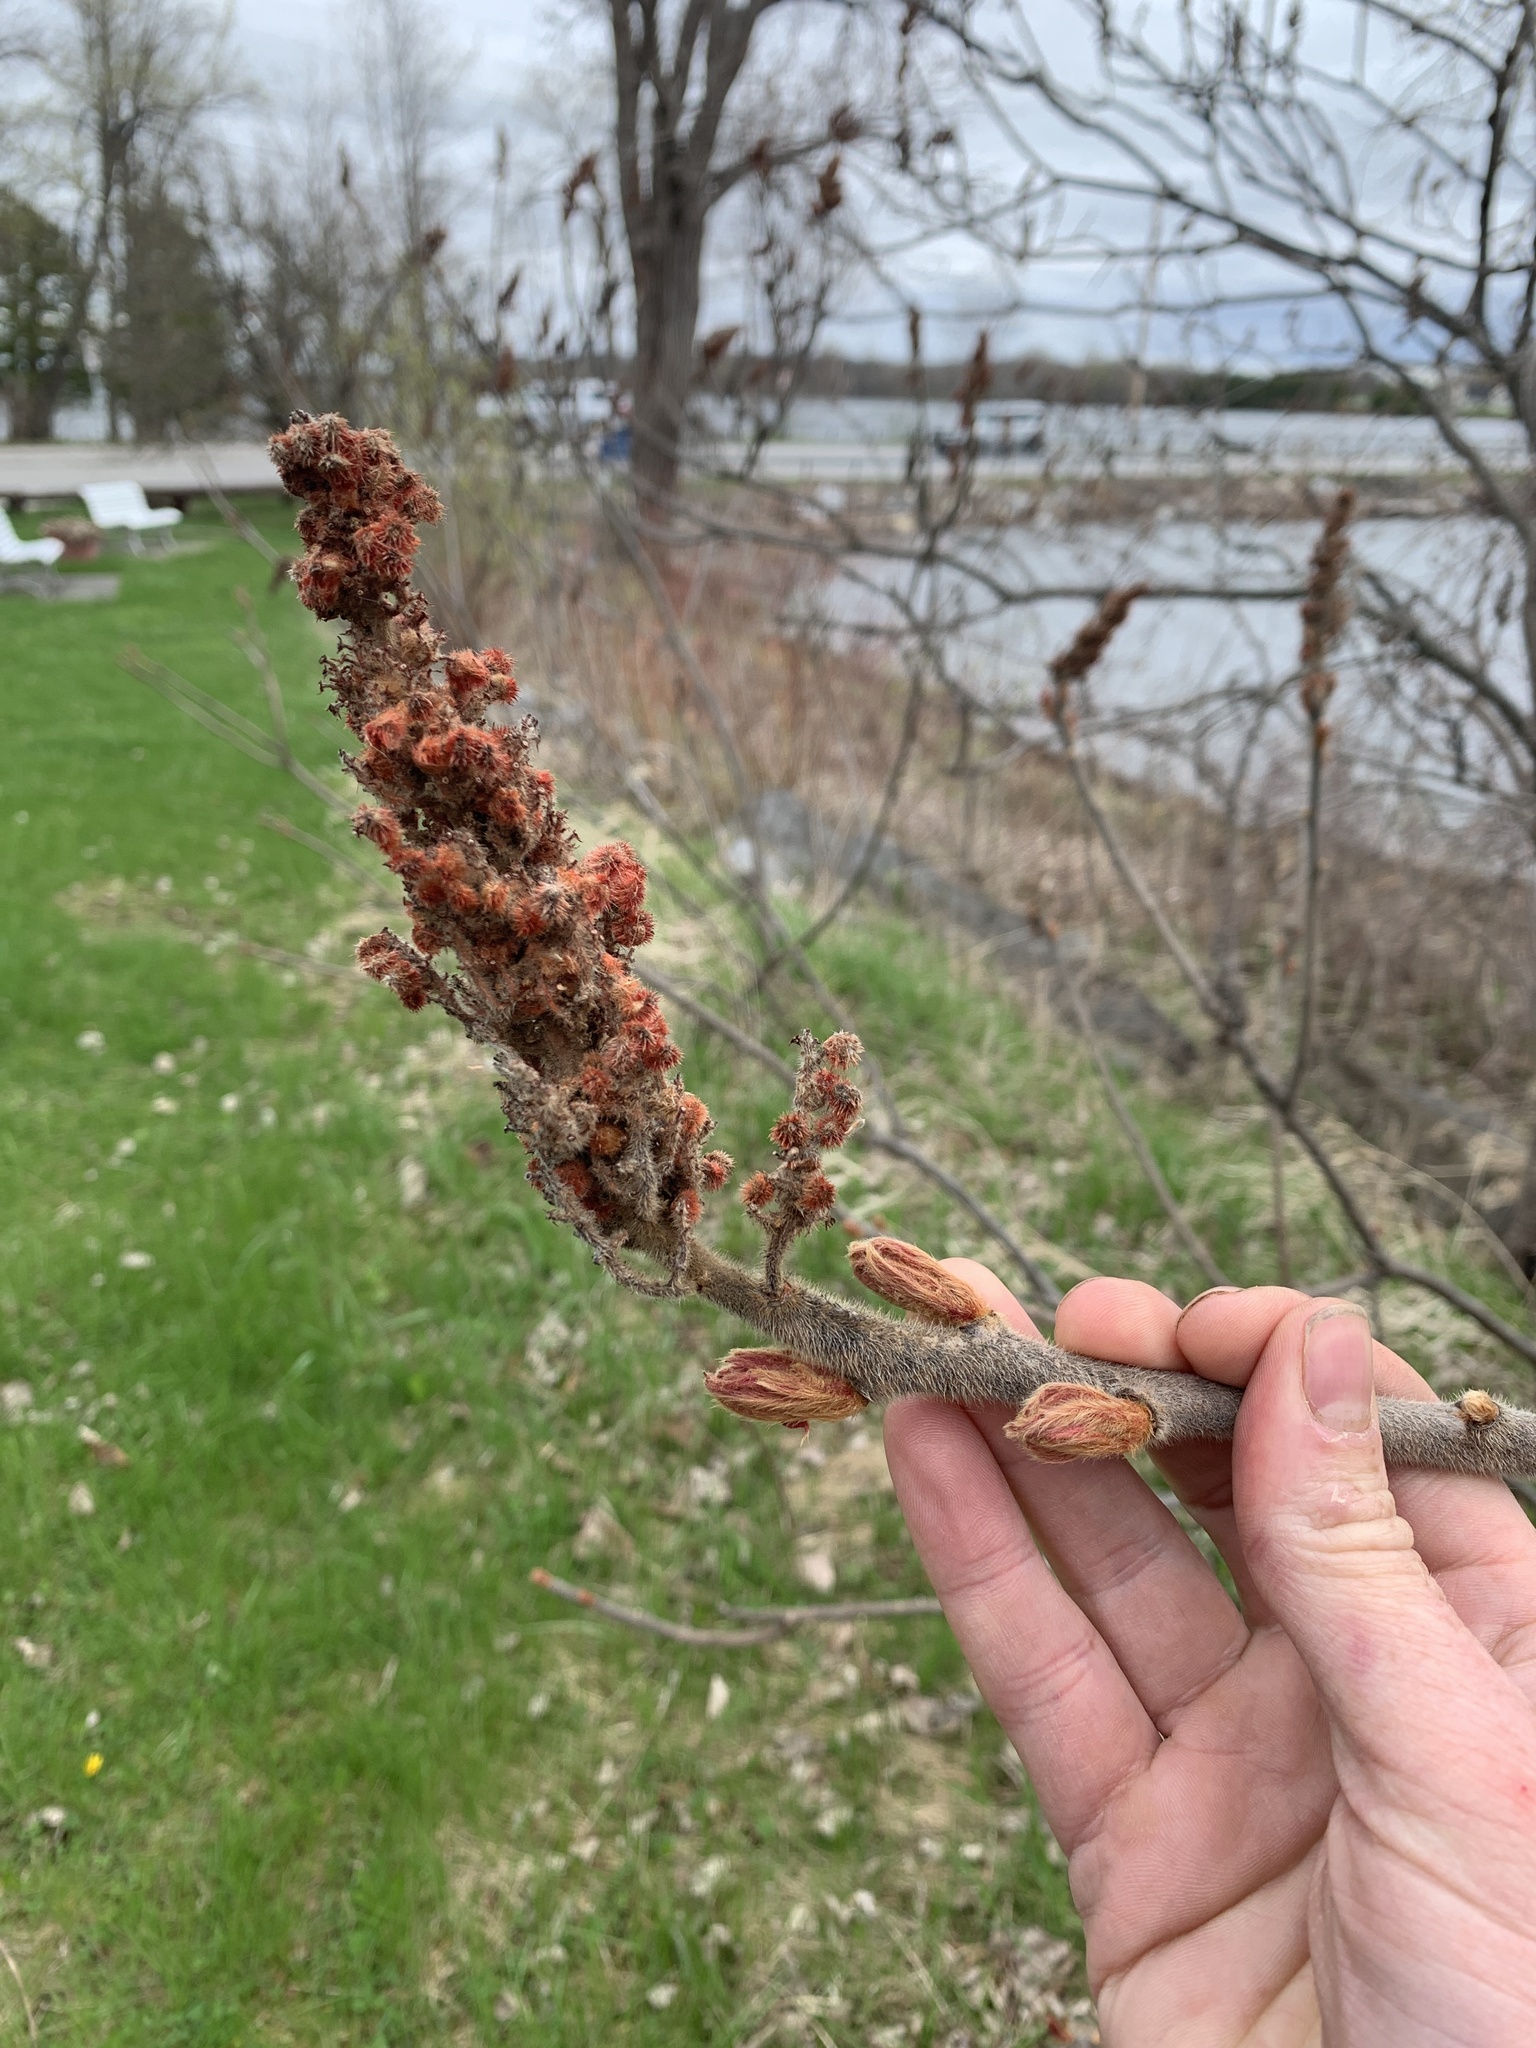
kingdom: Plantae
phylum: Tracheophyta
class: Magnoliopsida
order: Sapindales
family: Anacardiaceae
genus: Rhus
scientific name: Rhus typhina
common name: Staghorn sumac
